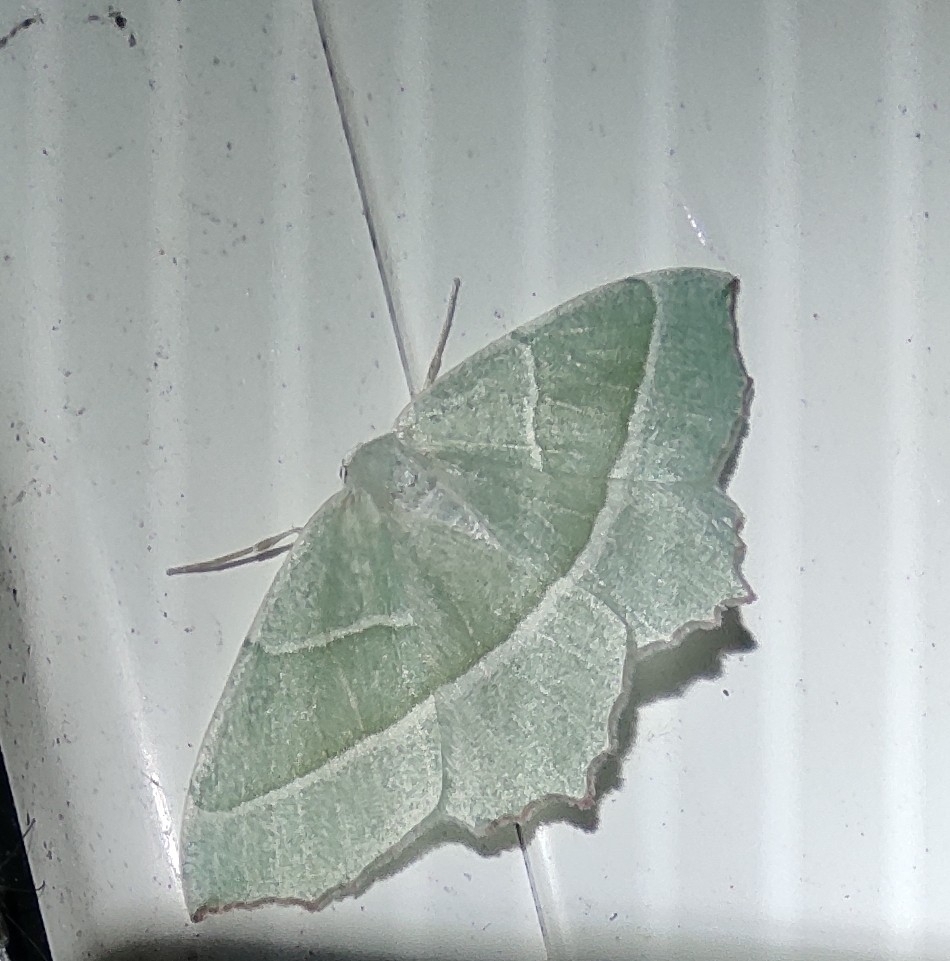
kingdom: Animalia
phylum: Arthropoda
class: Insecta
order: Lepidoptera
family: Geometridae
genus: Campaea
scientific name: Campaea margaritaria
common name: Light emerald
